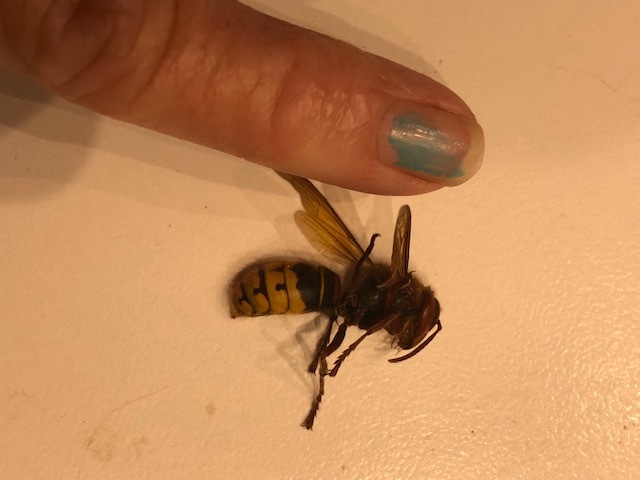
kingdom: Animalia
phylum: Arthropoda
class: Insecta
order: Hymenoptera
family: Vespidae
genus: Vespa
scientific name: Vespa crabro
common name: Hornet
